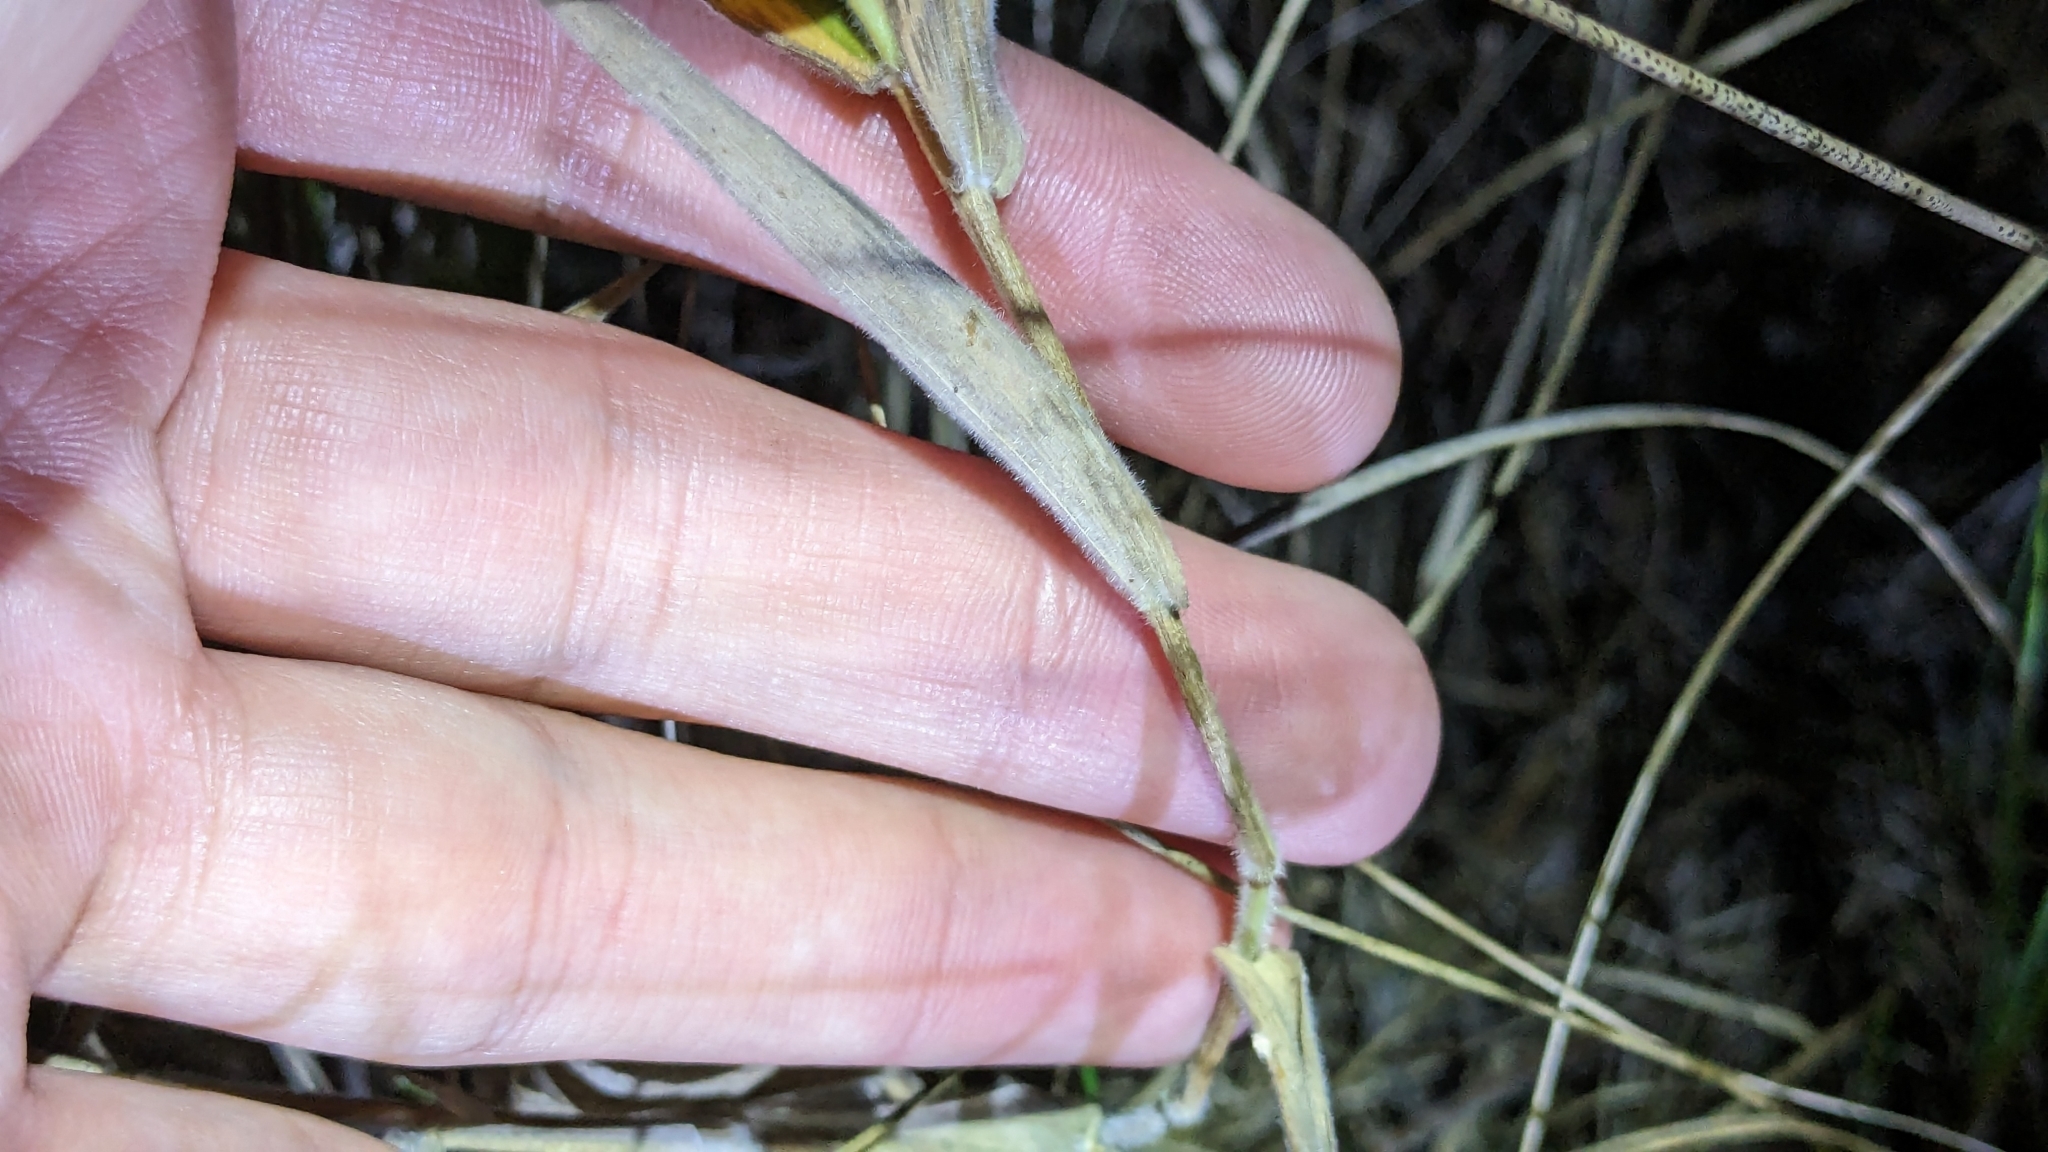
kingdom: Plantae
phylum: Tracheophyta
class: Liliopsida
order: Poales
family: Poaceae
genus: Dichanthelium
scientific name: Dichanthelium scoparium
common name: Velvety panic grass
